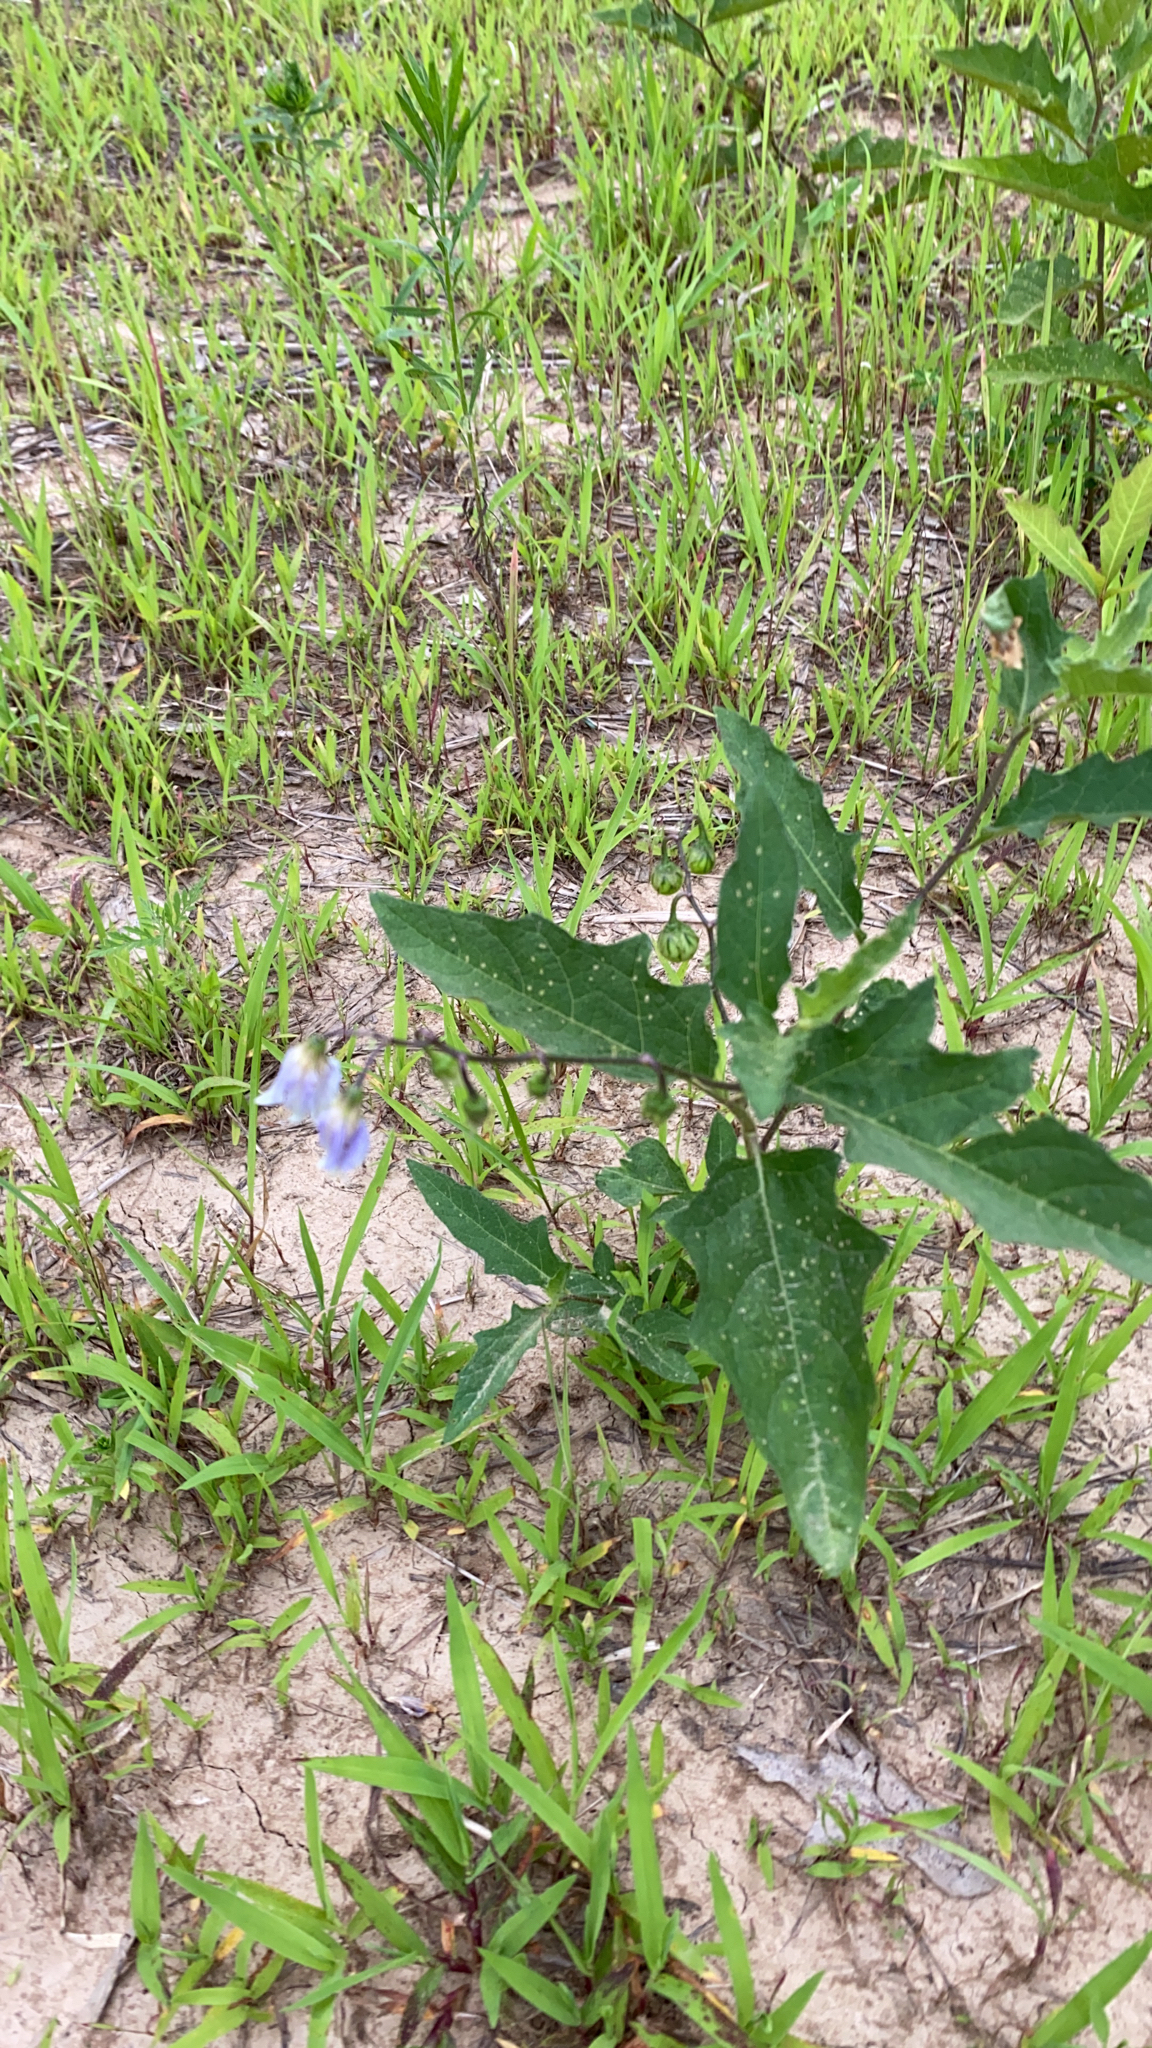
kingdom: Plantae
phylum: Tracheophyta
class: Magnoliopsida
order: Solanales
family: Solanaceae
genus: Solanum
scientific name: Solanum carolinense
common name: Horse-nettle
